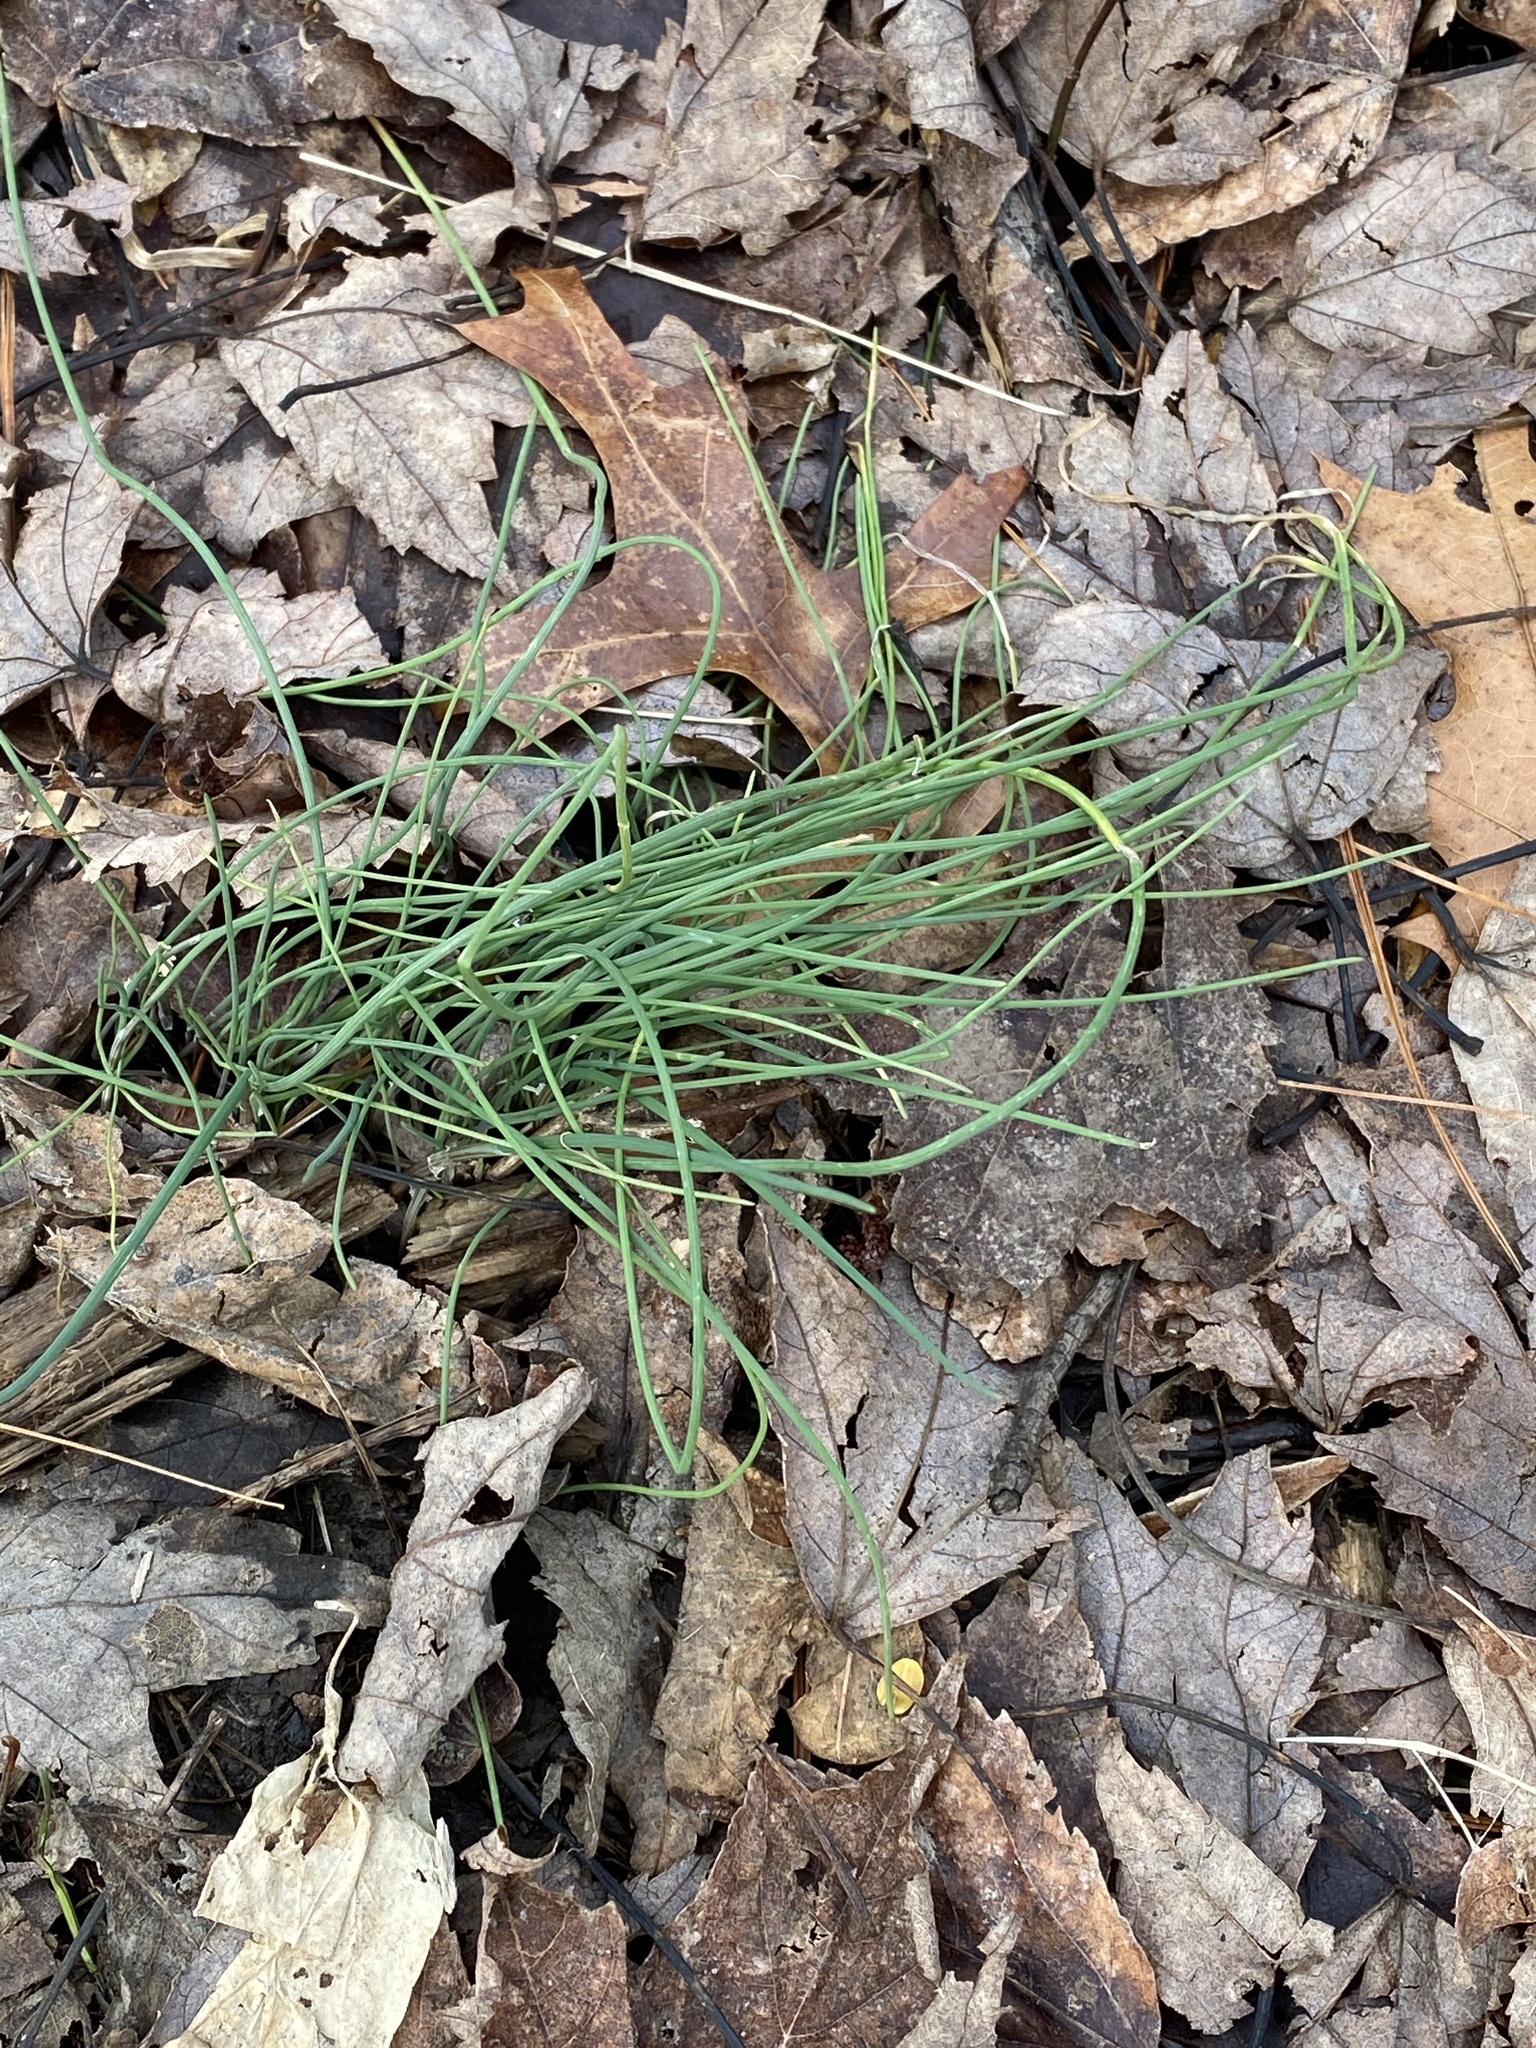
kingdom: Plantae
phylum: Tracheophyta
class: Liliopsida
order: Asparagales
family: Amaryllidaceae
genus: Allium
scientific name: Allium vineale
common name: Crow garlic
